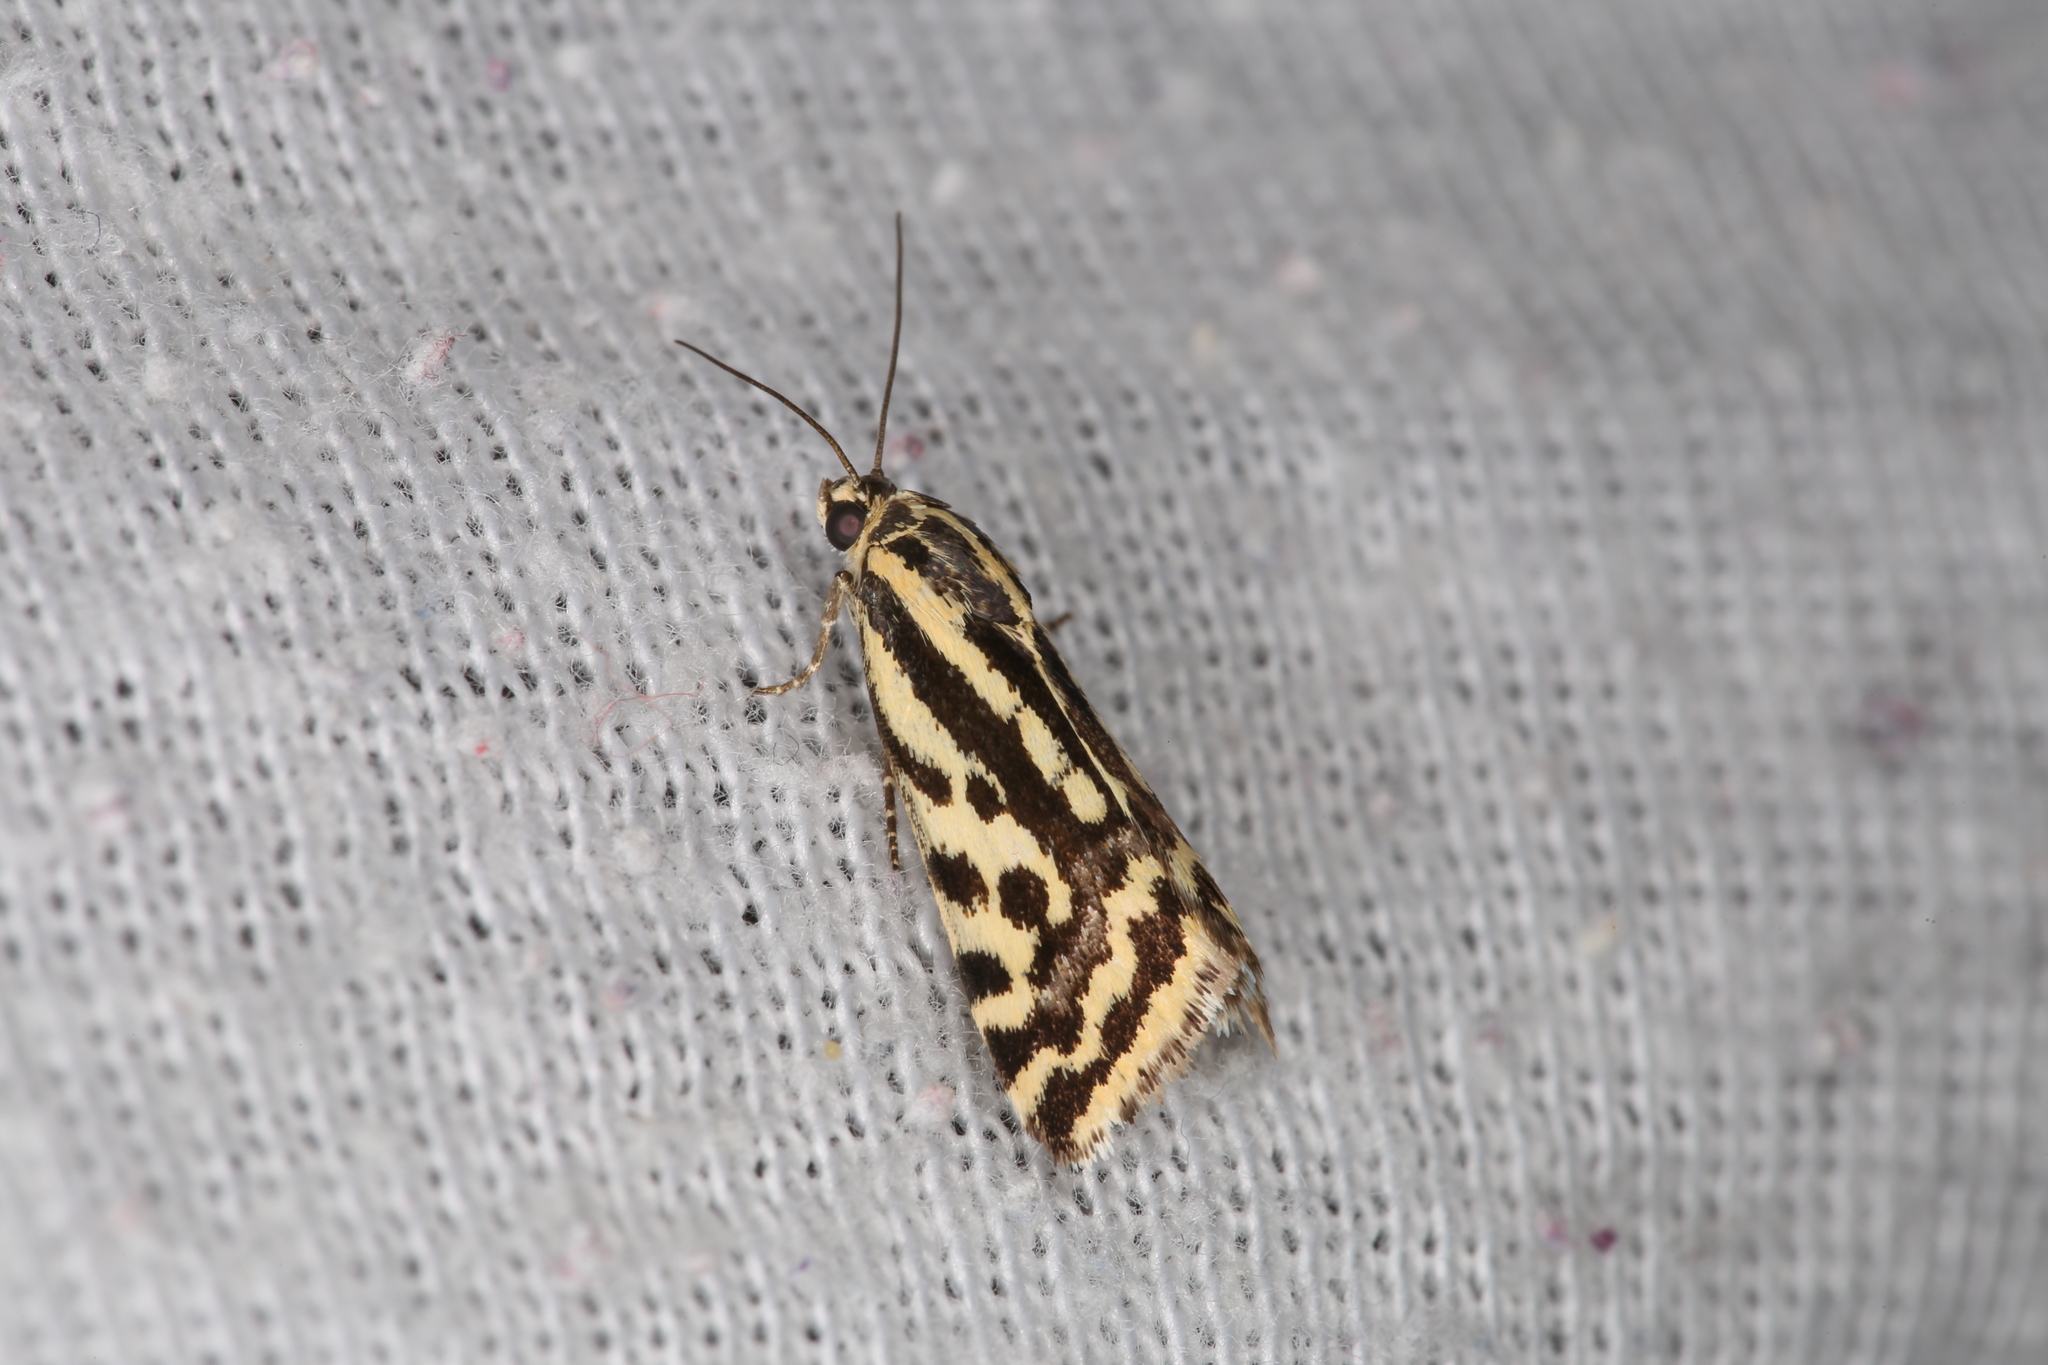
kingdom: Animalia
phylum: Arthropoda
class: Insecta
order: Lepidoptera
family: Noctuidae
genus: Acontia
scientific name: Acontia trabealis
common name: Spotted sulphur
